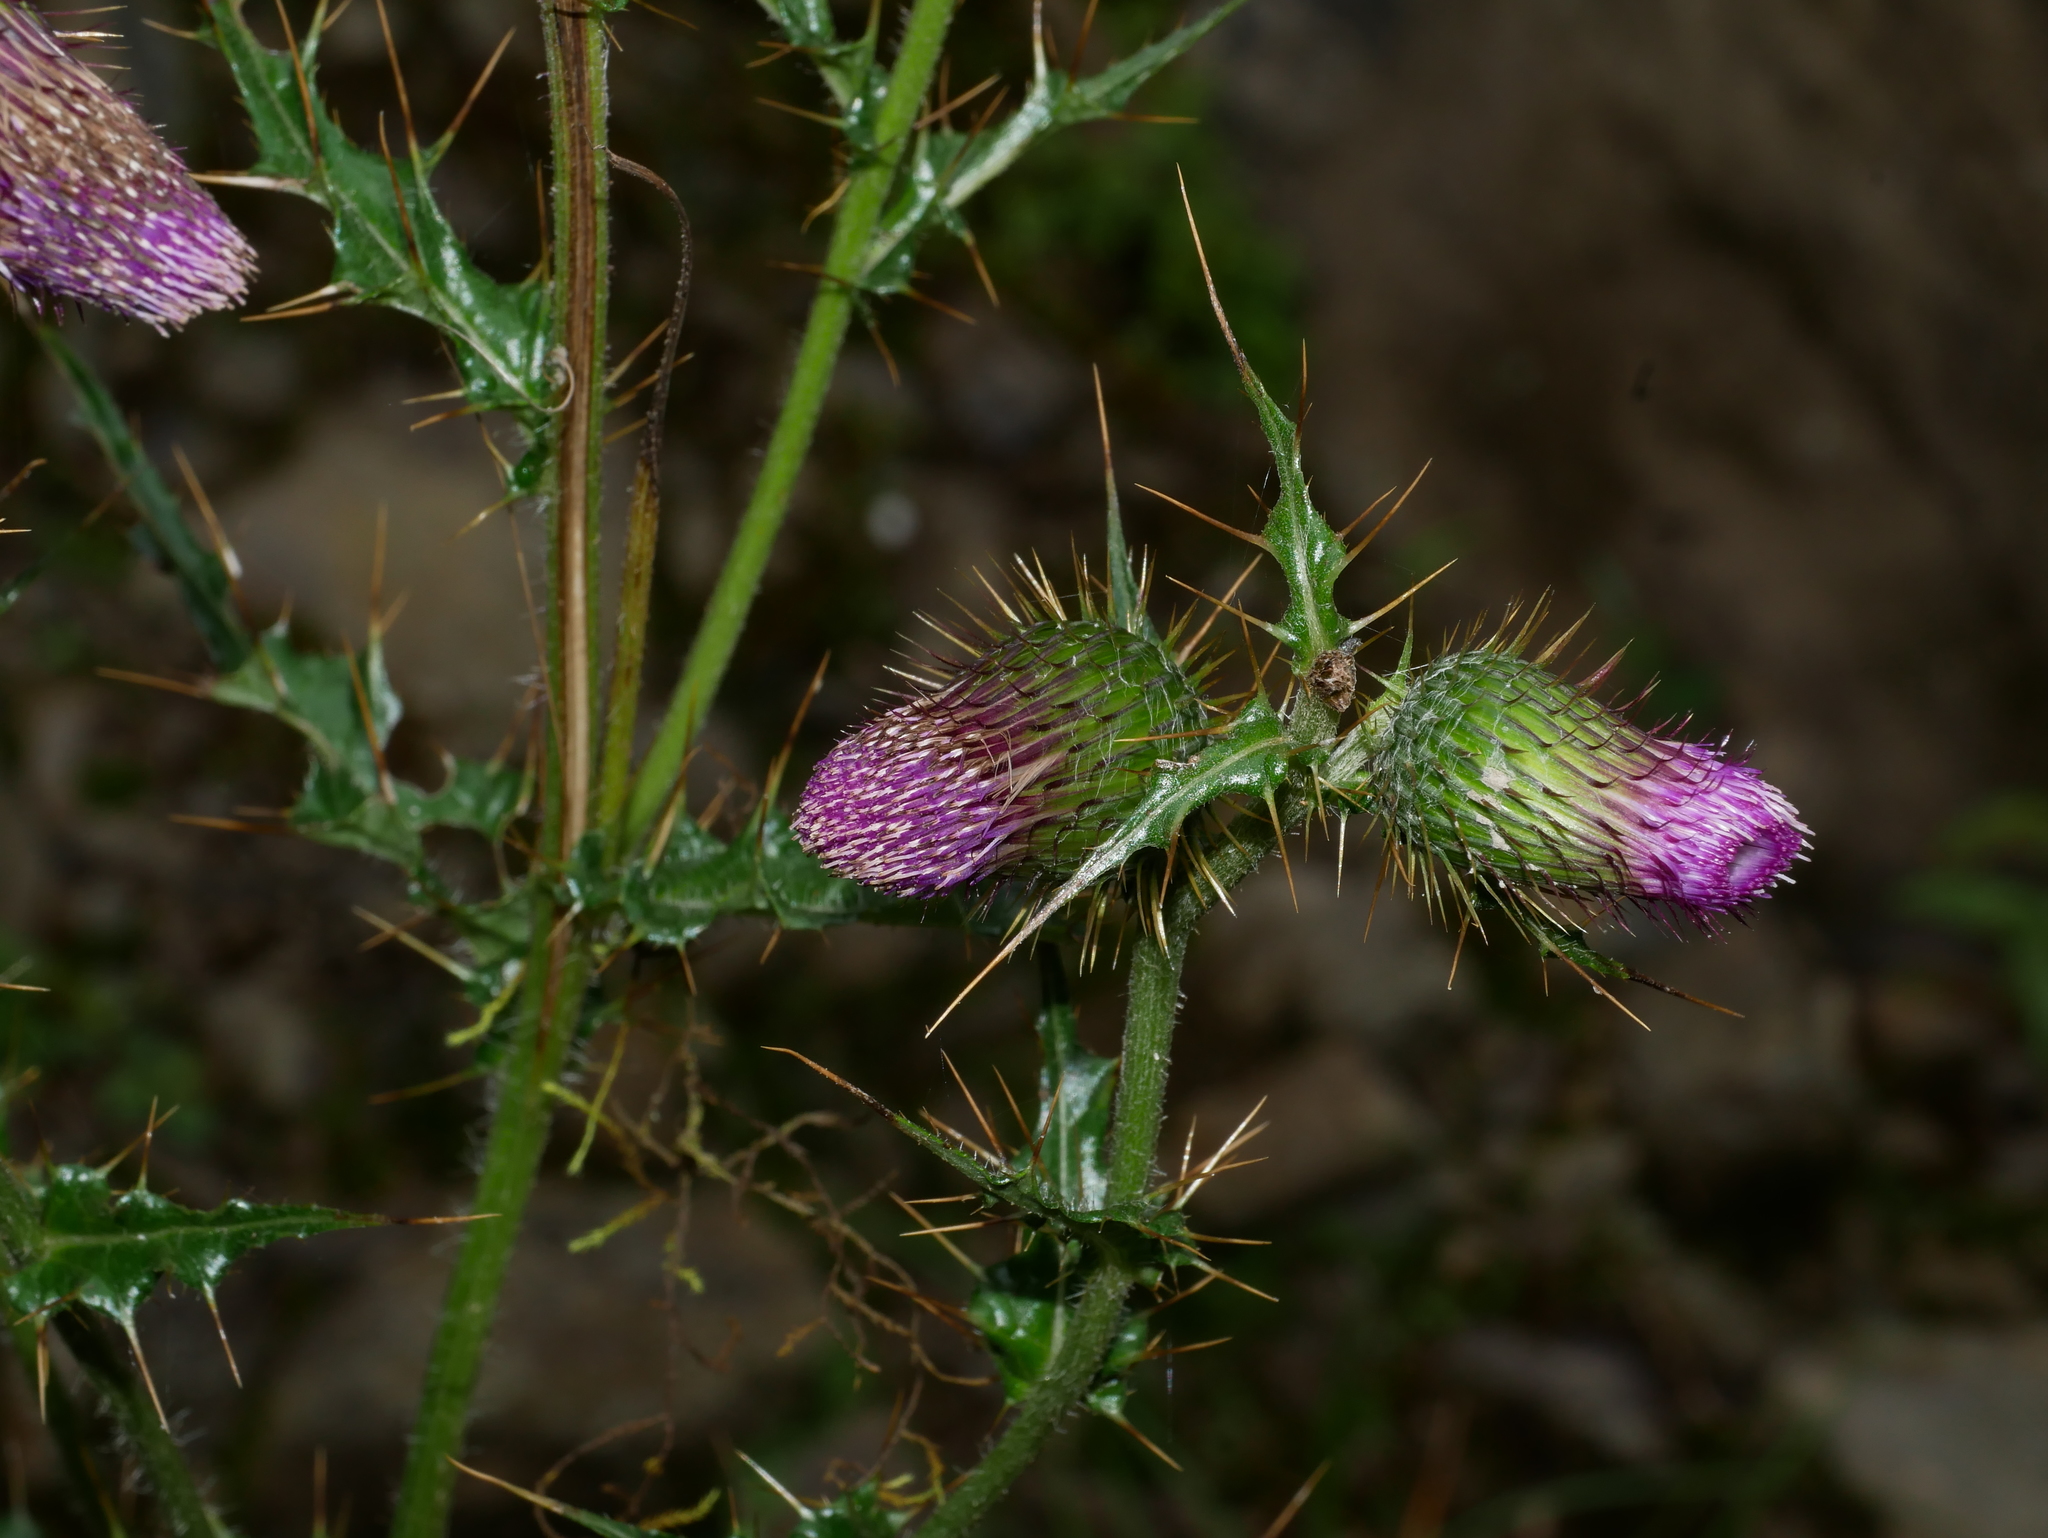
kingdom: Plantae
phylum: Tracheophyta
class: Magnoliopsida
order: Asterales
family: Asteraceae
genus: Cirsium
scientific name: Cirsium ferum
